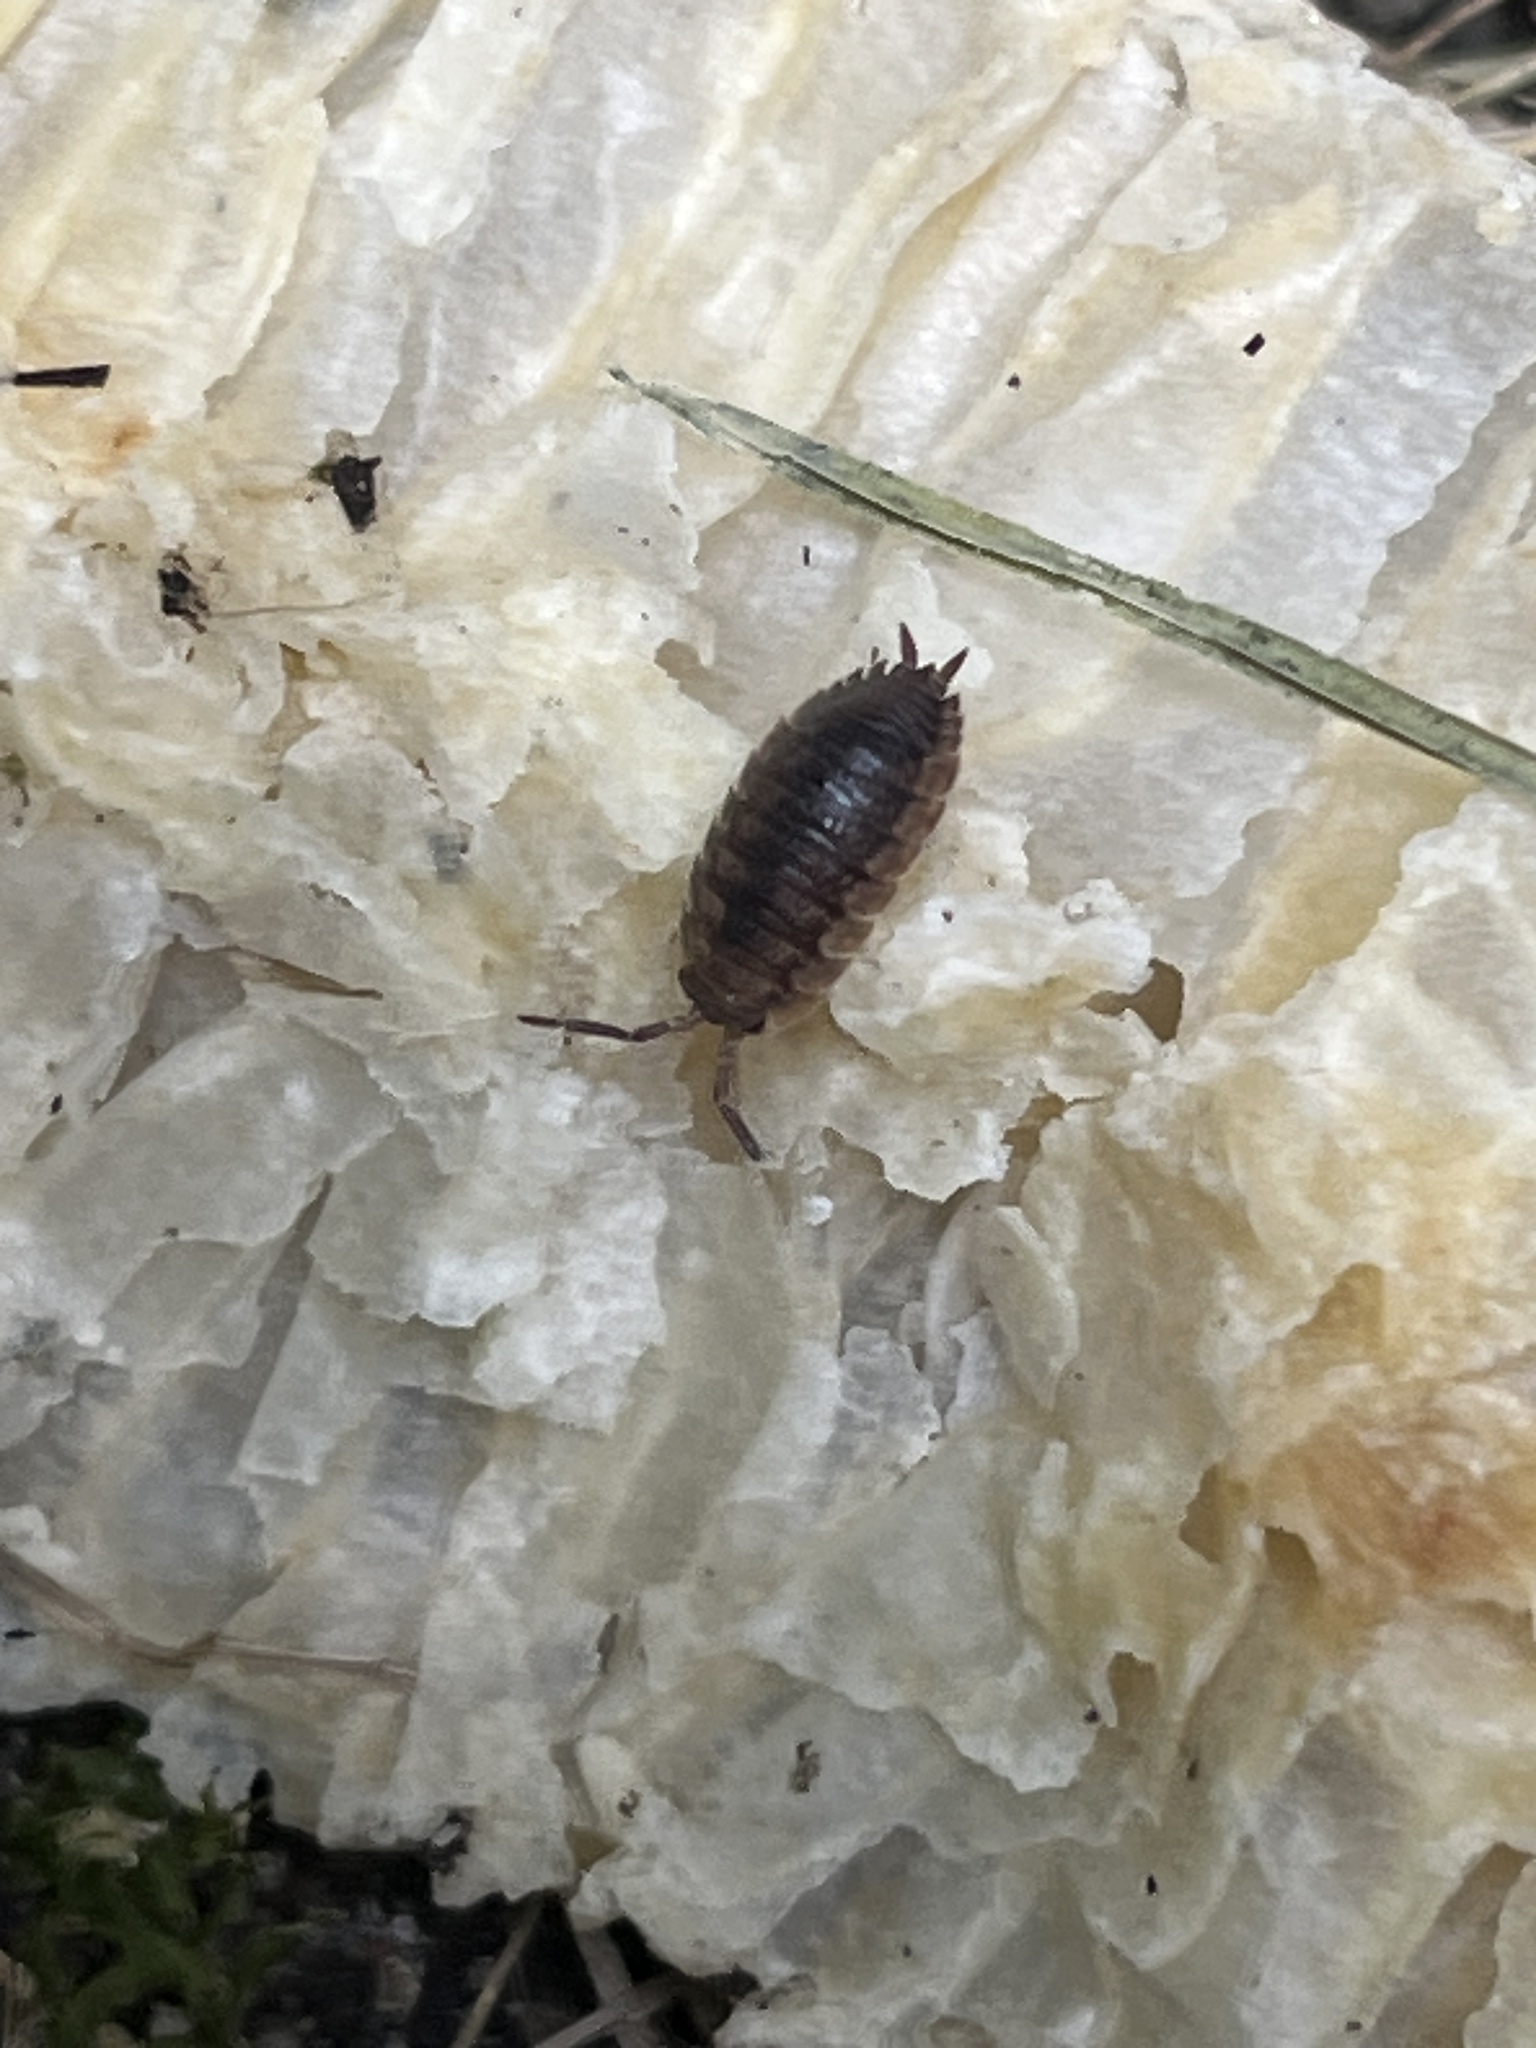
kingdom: Animalia
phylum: Arthropoda
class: Malacostraca
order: Isopoda
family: Porcellionidae
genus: Porcellio
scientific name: Porcellio scaber
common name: Common rough woodlouse
